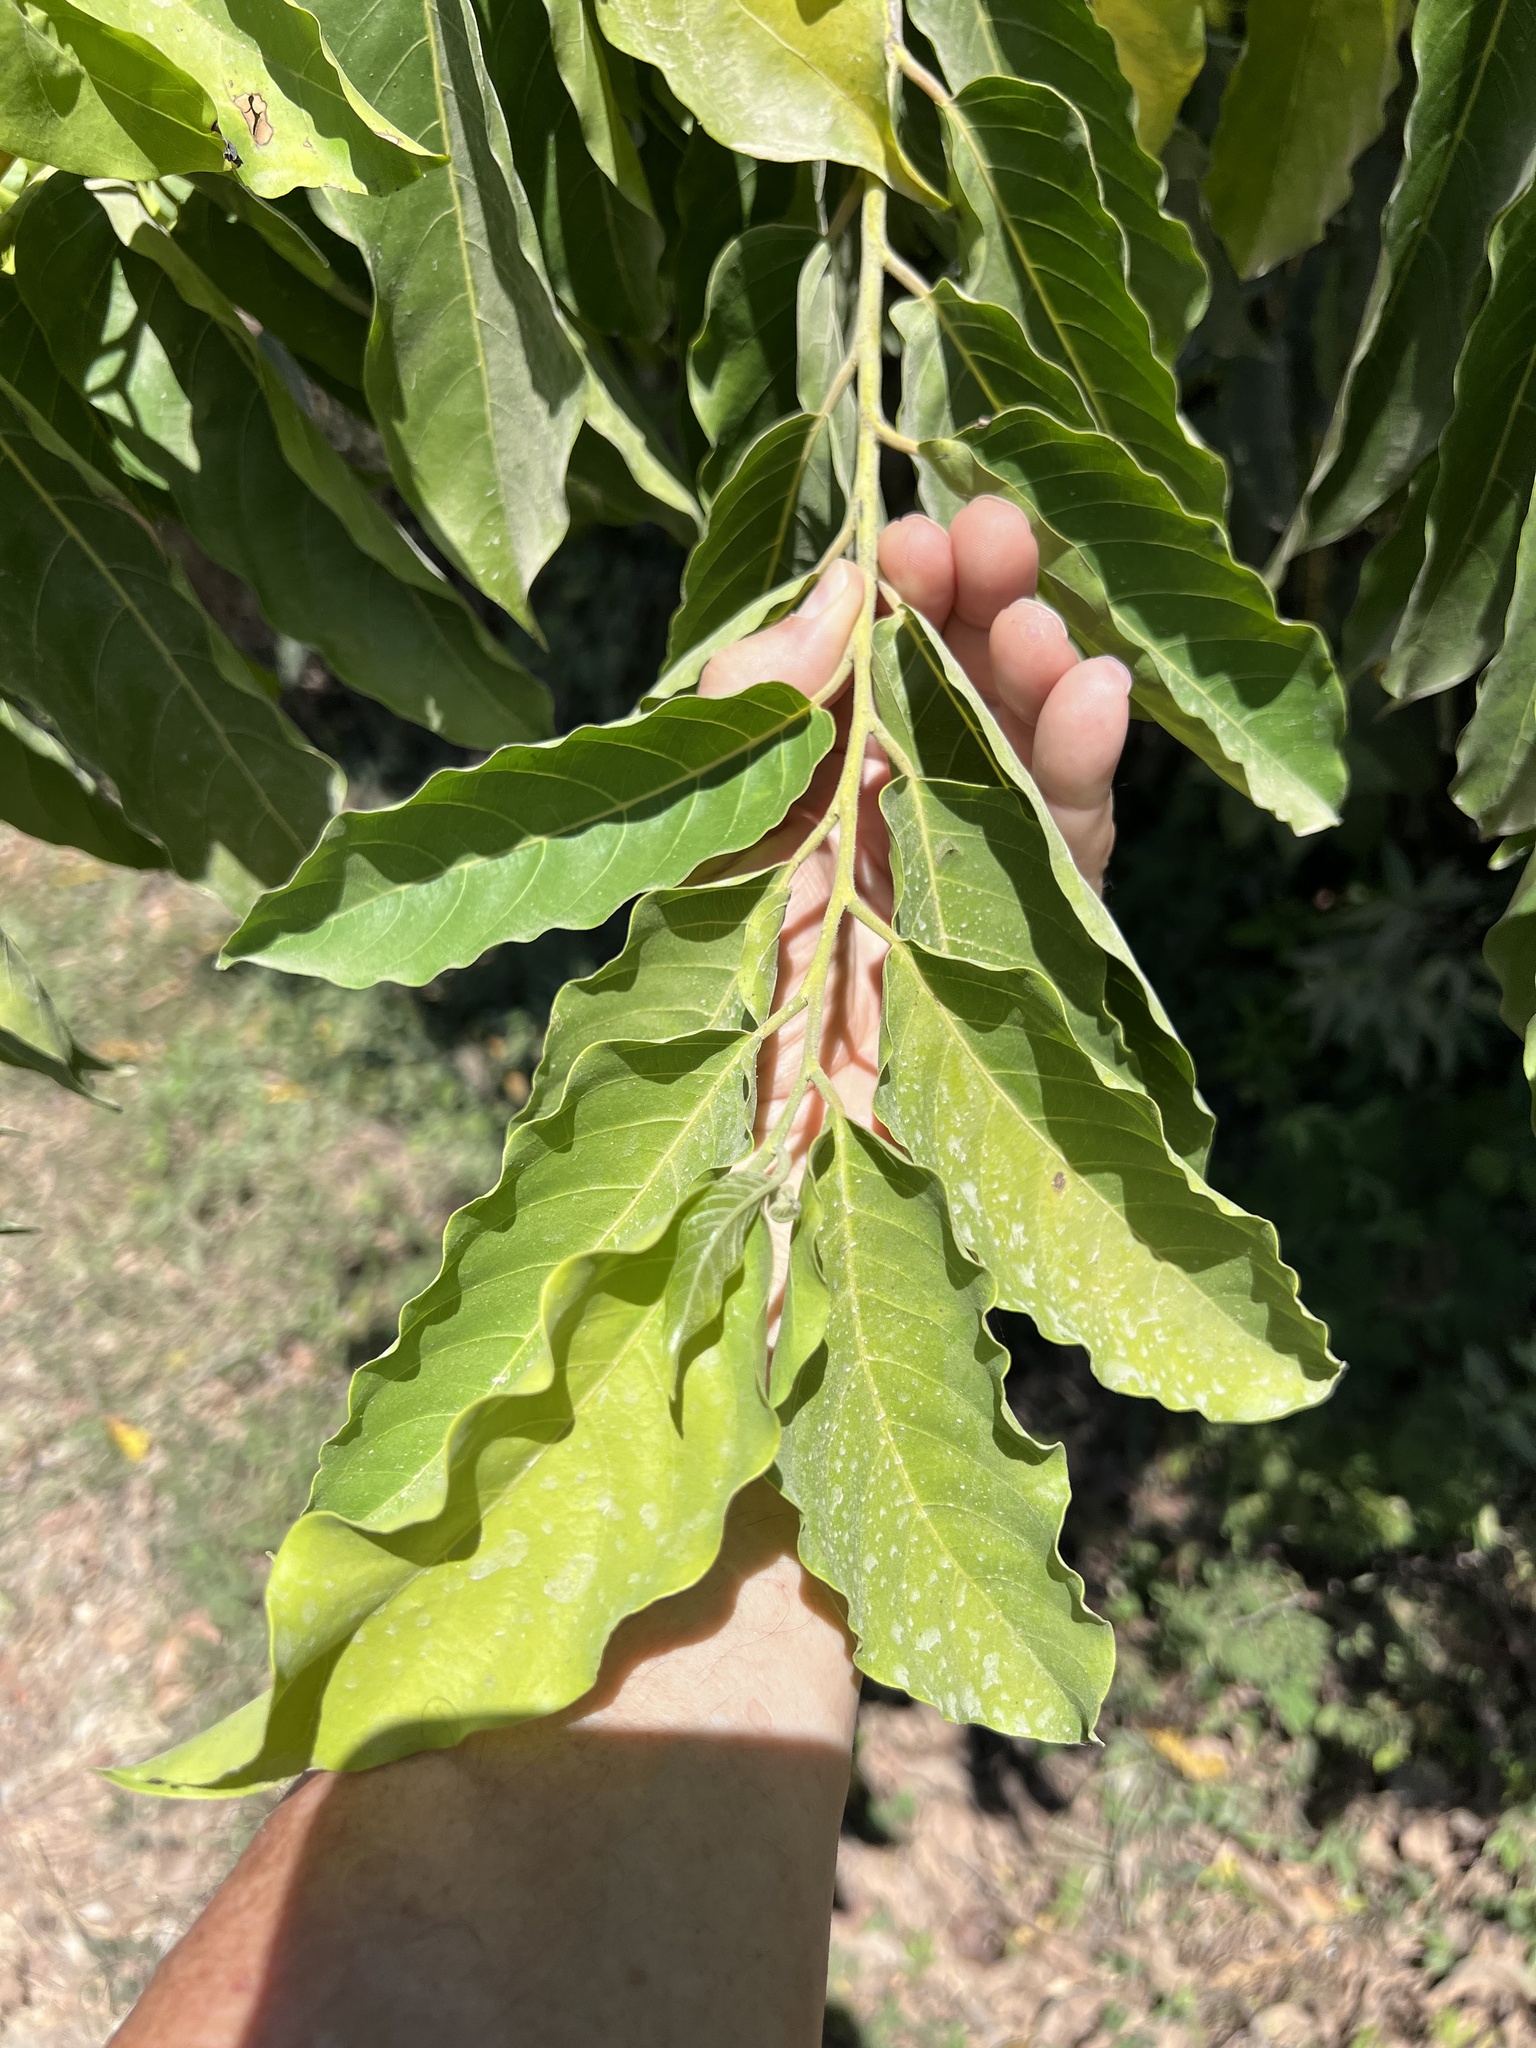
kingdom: Plantae
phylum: Tracheophyta
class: Magnoliopsida
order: Magnoliales
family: Annonaceae
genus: Cananga
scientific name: Cananga odorata
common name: Cananga tree
